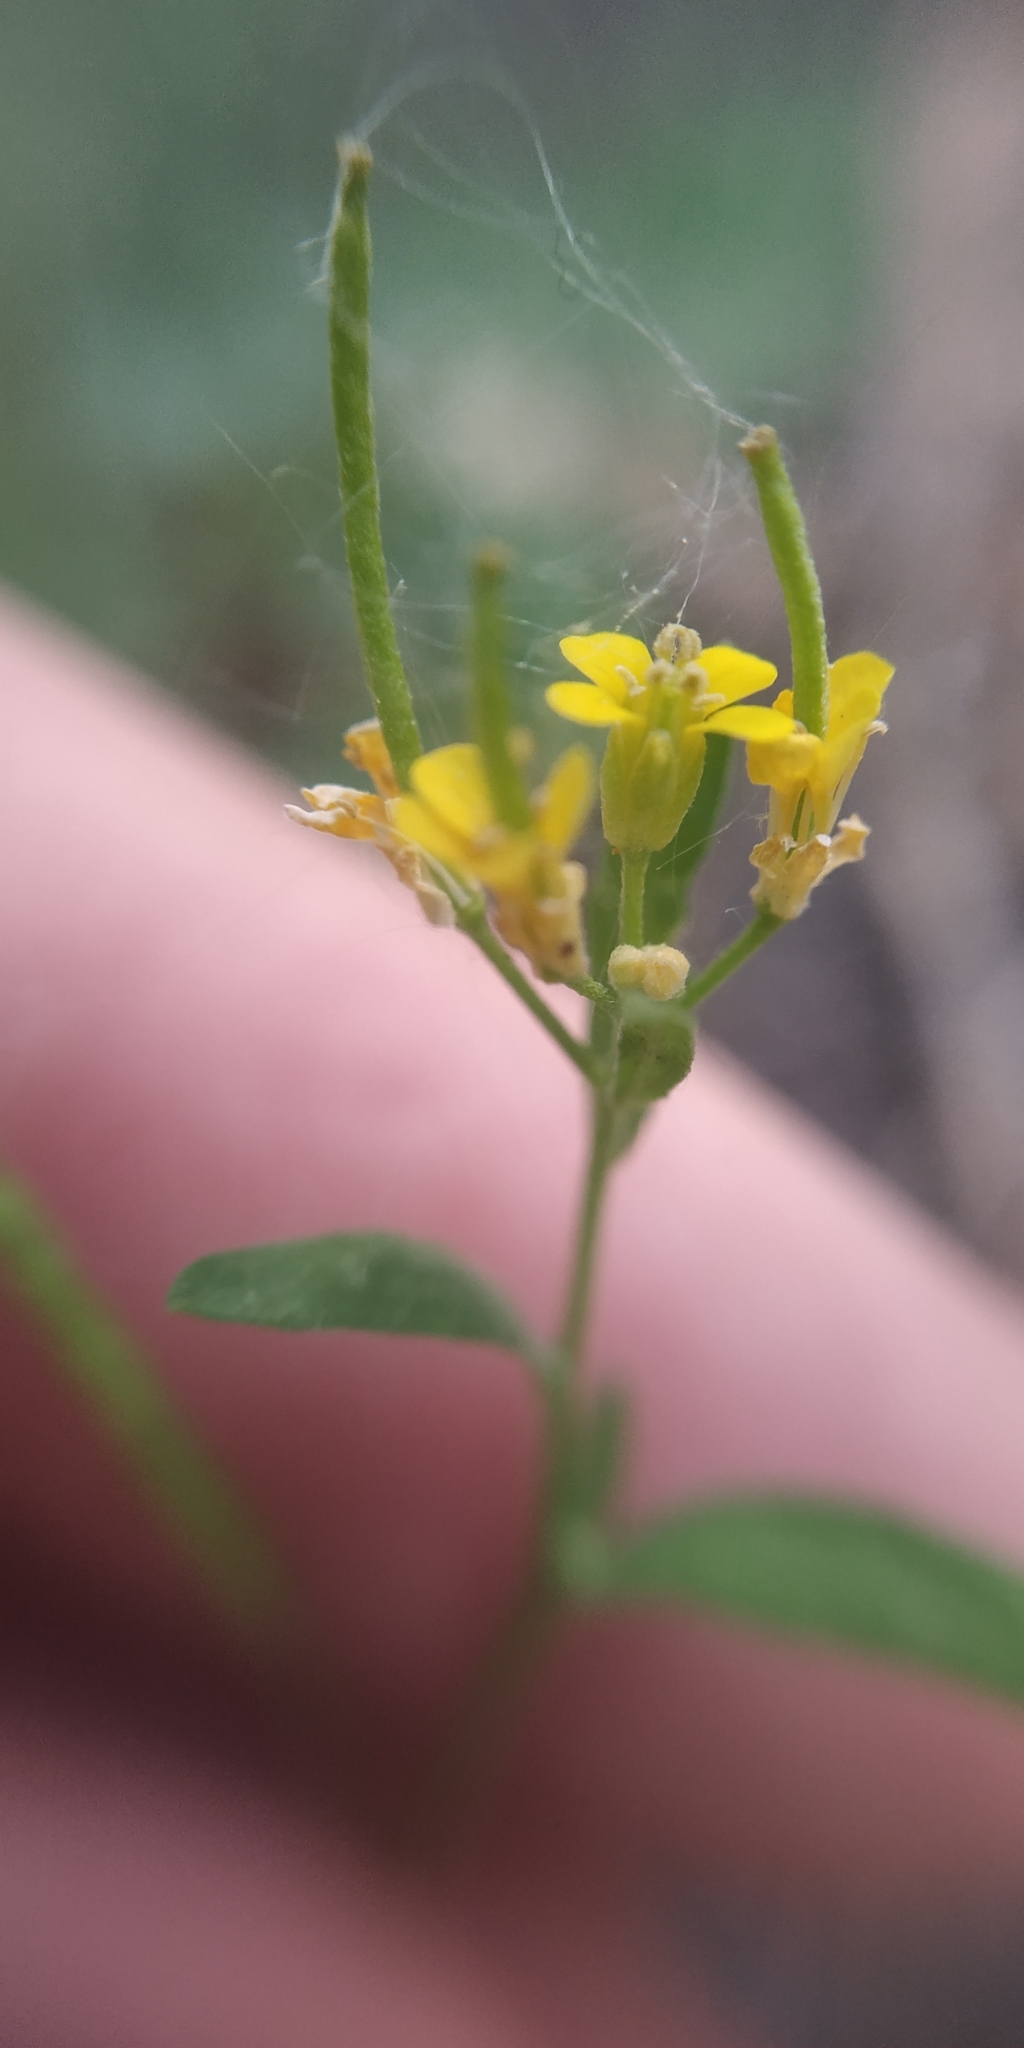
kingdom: Plantae
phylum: Tracheophyta
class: Magnoliopsida
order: Brassicales
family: Brassicaceae
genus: Erysimum
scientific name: Erysimum cheiranthoides
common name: Treacle mustard
